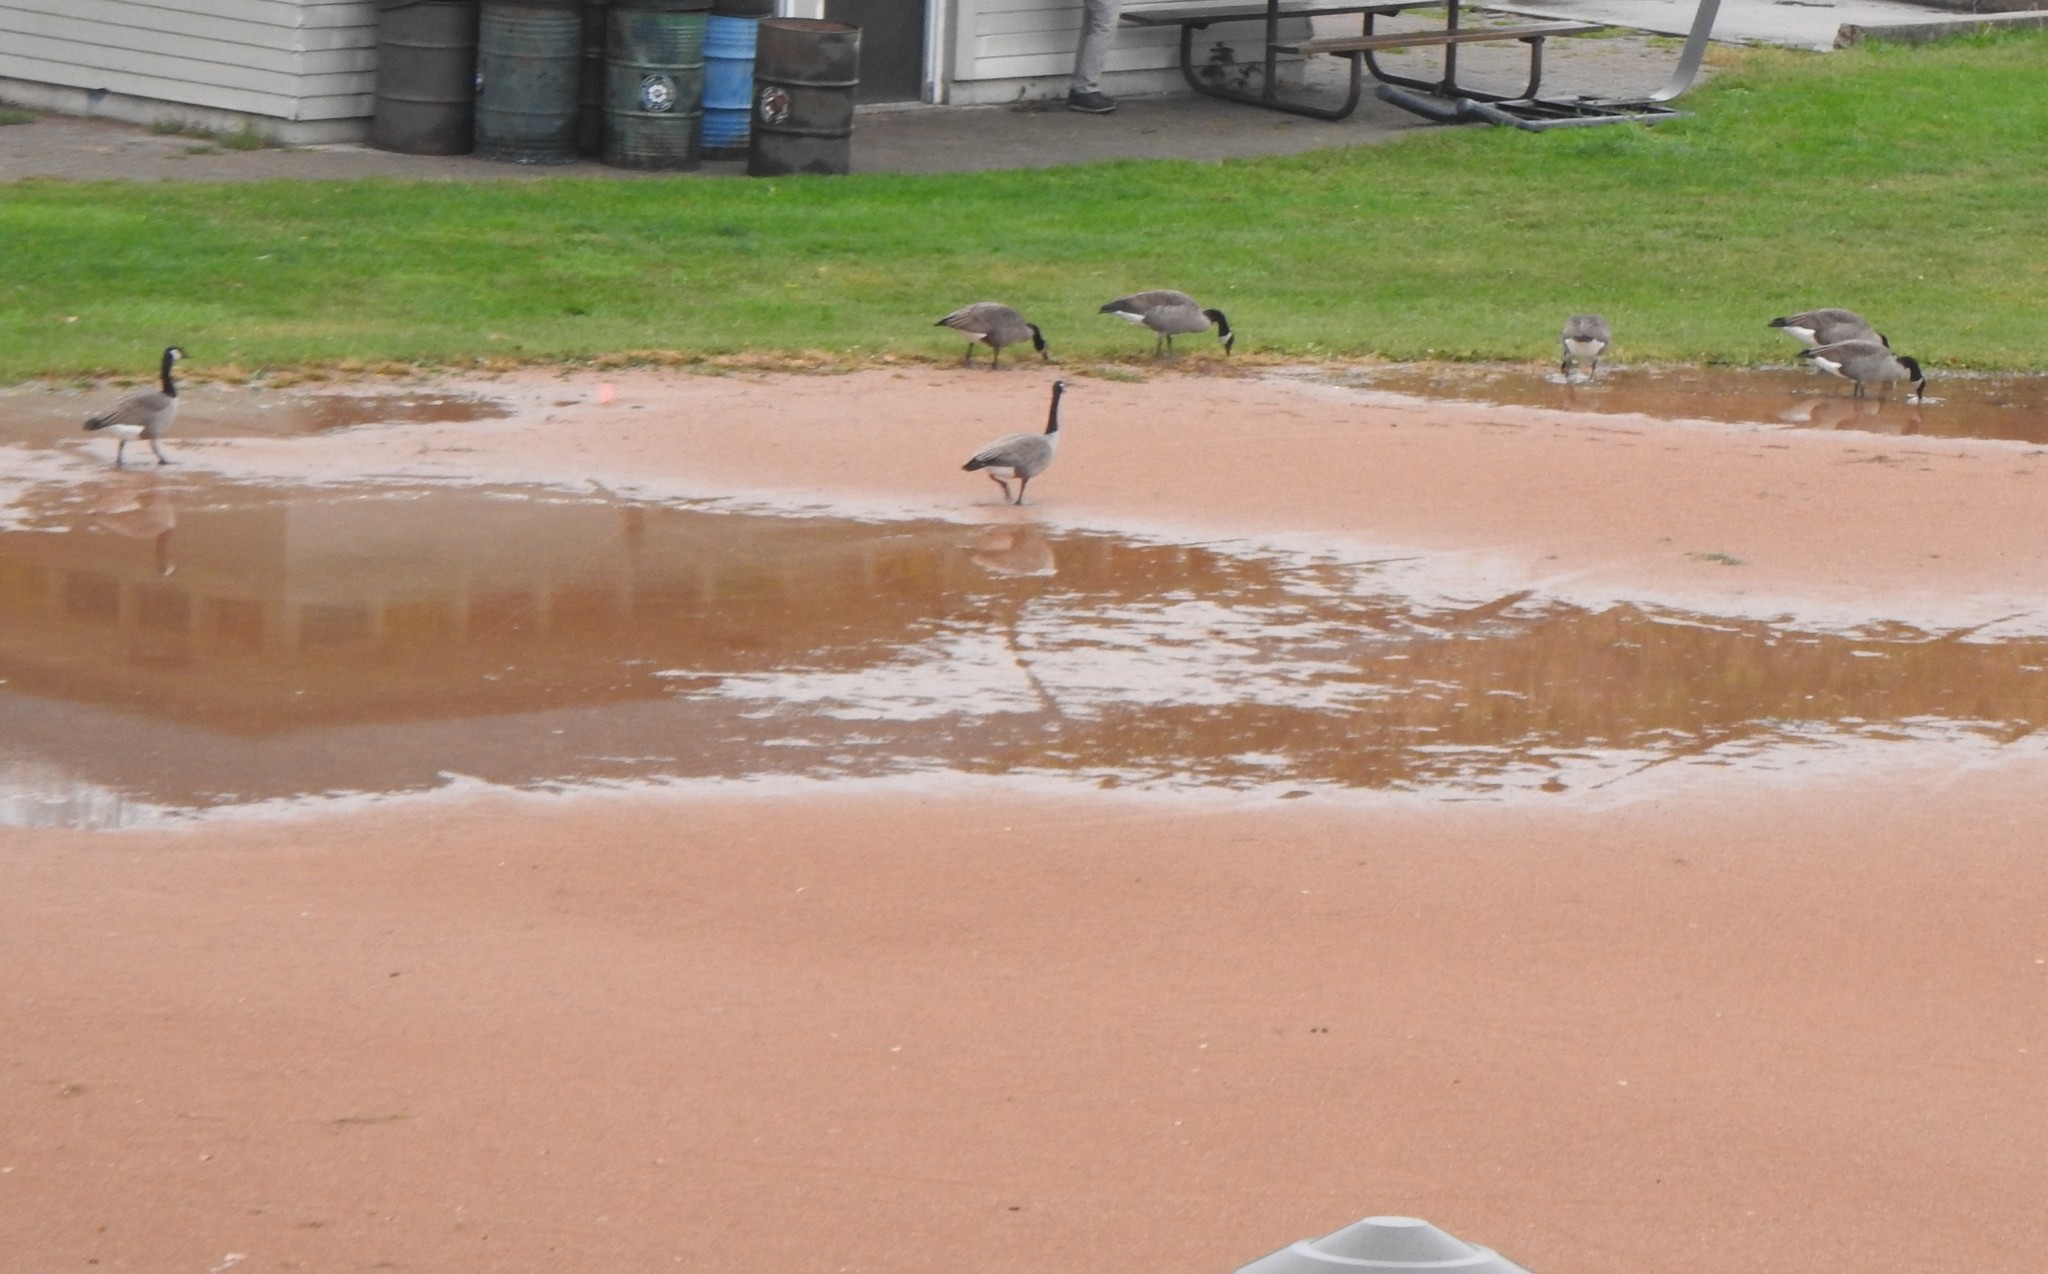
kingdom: Animalia
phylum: Chordata
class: Aves
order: Anseriformes
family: Anatidae
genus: Branta
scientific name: Branta canadensis
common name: Canada goose
